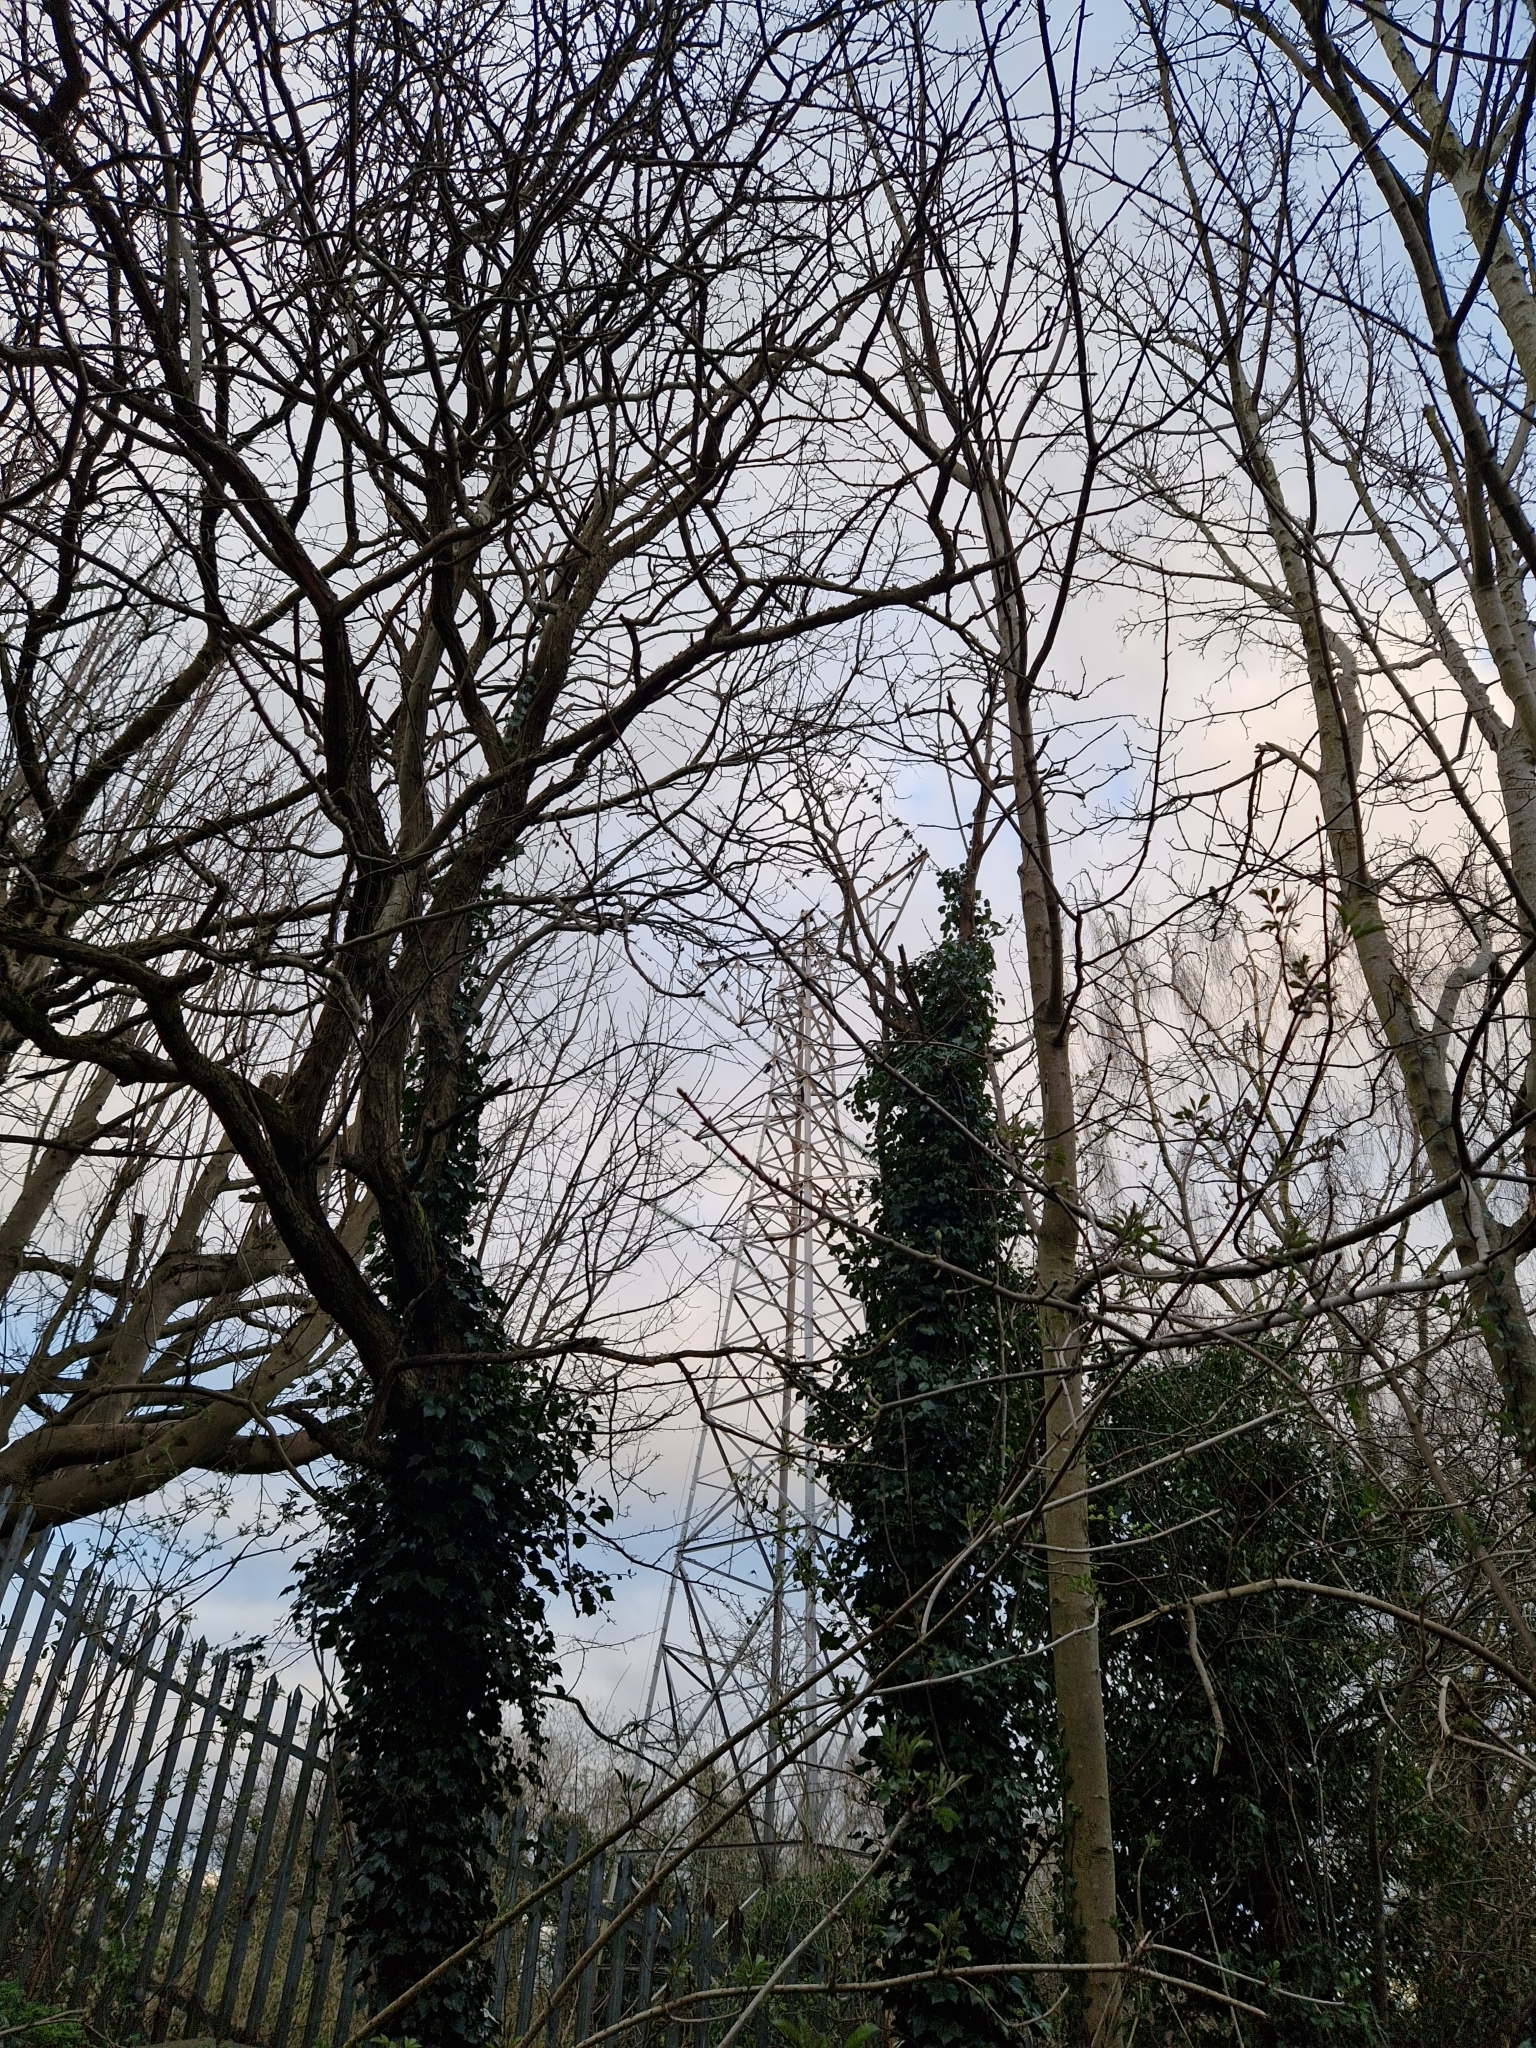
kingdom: Animalia
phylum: Chordata
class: Aves
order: Passeriformes
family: Corvidae
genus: Coloeus
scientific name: Coloeus monedula
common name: Western jackdaw
